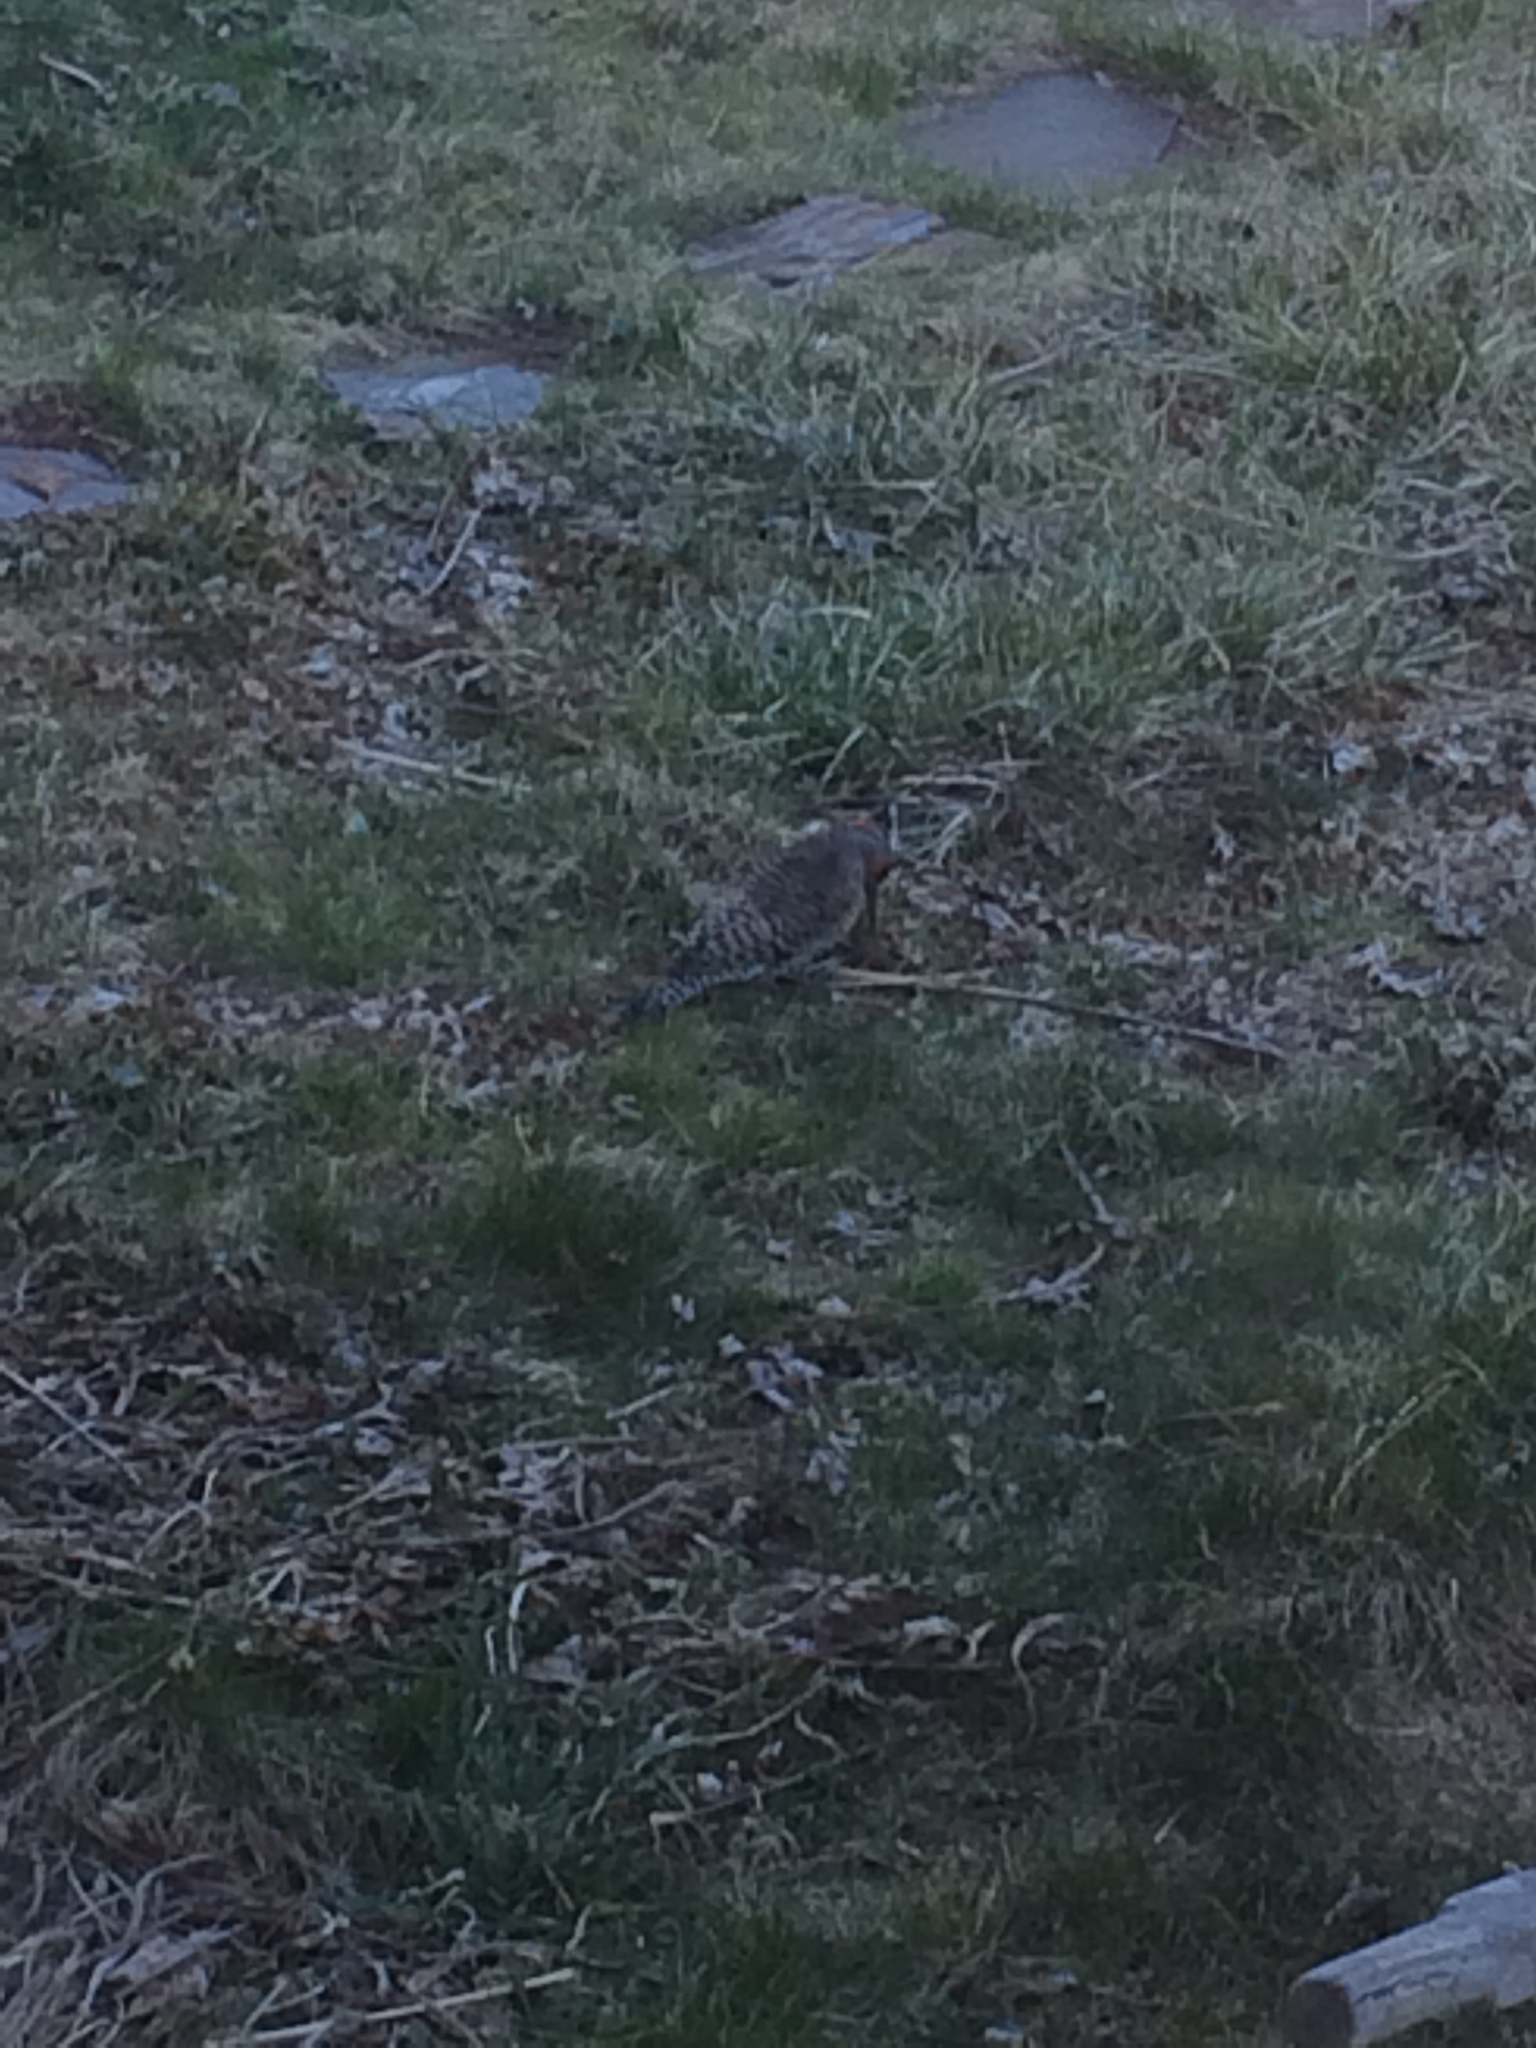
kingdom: Animalia
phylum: Chordata
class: Aves
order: Piciformes
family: Picidae
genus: Colaptes
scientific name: Colaptes auratus
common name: Northern flicker
